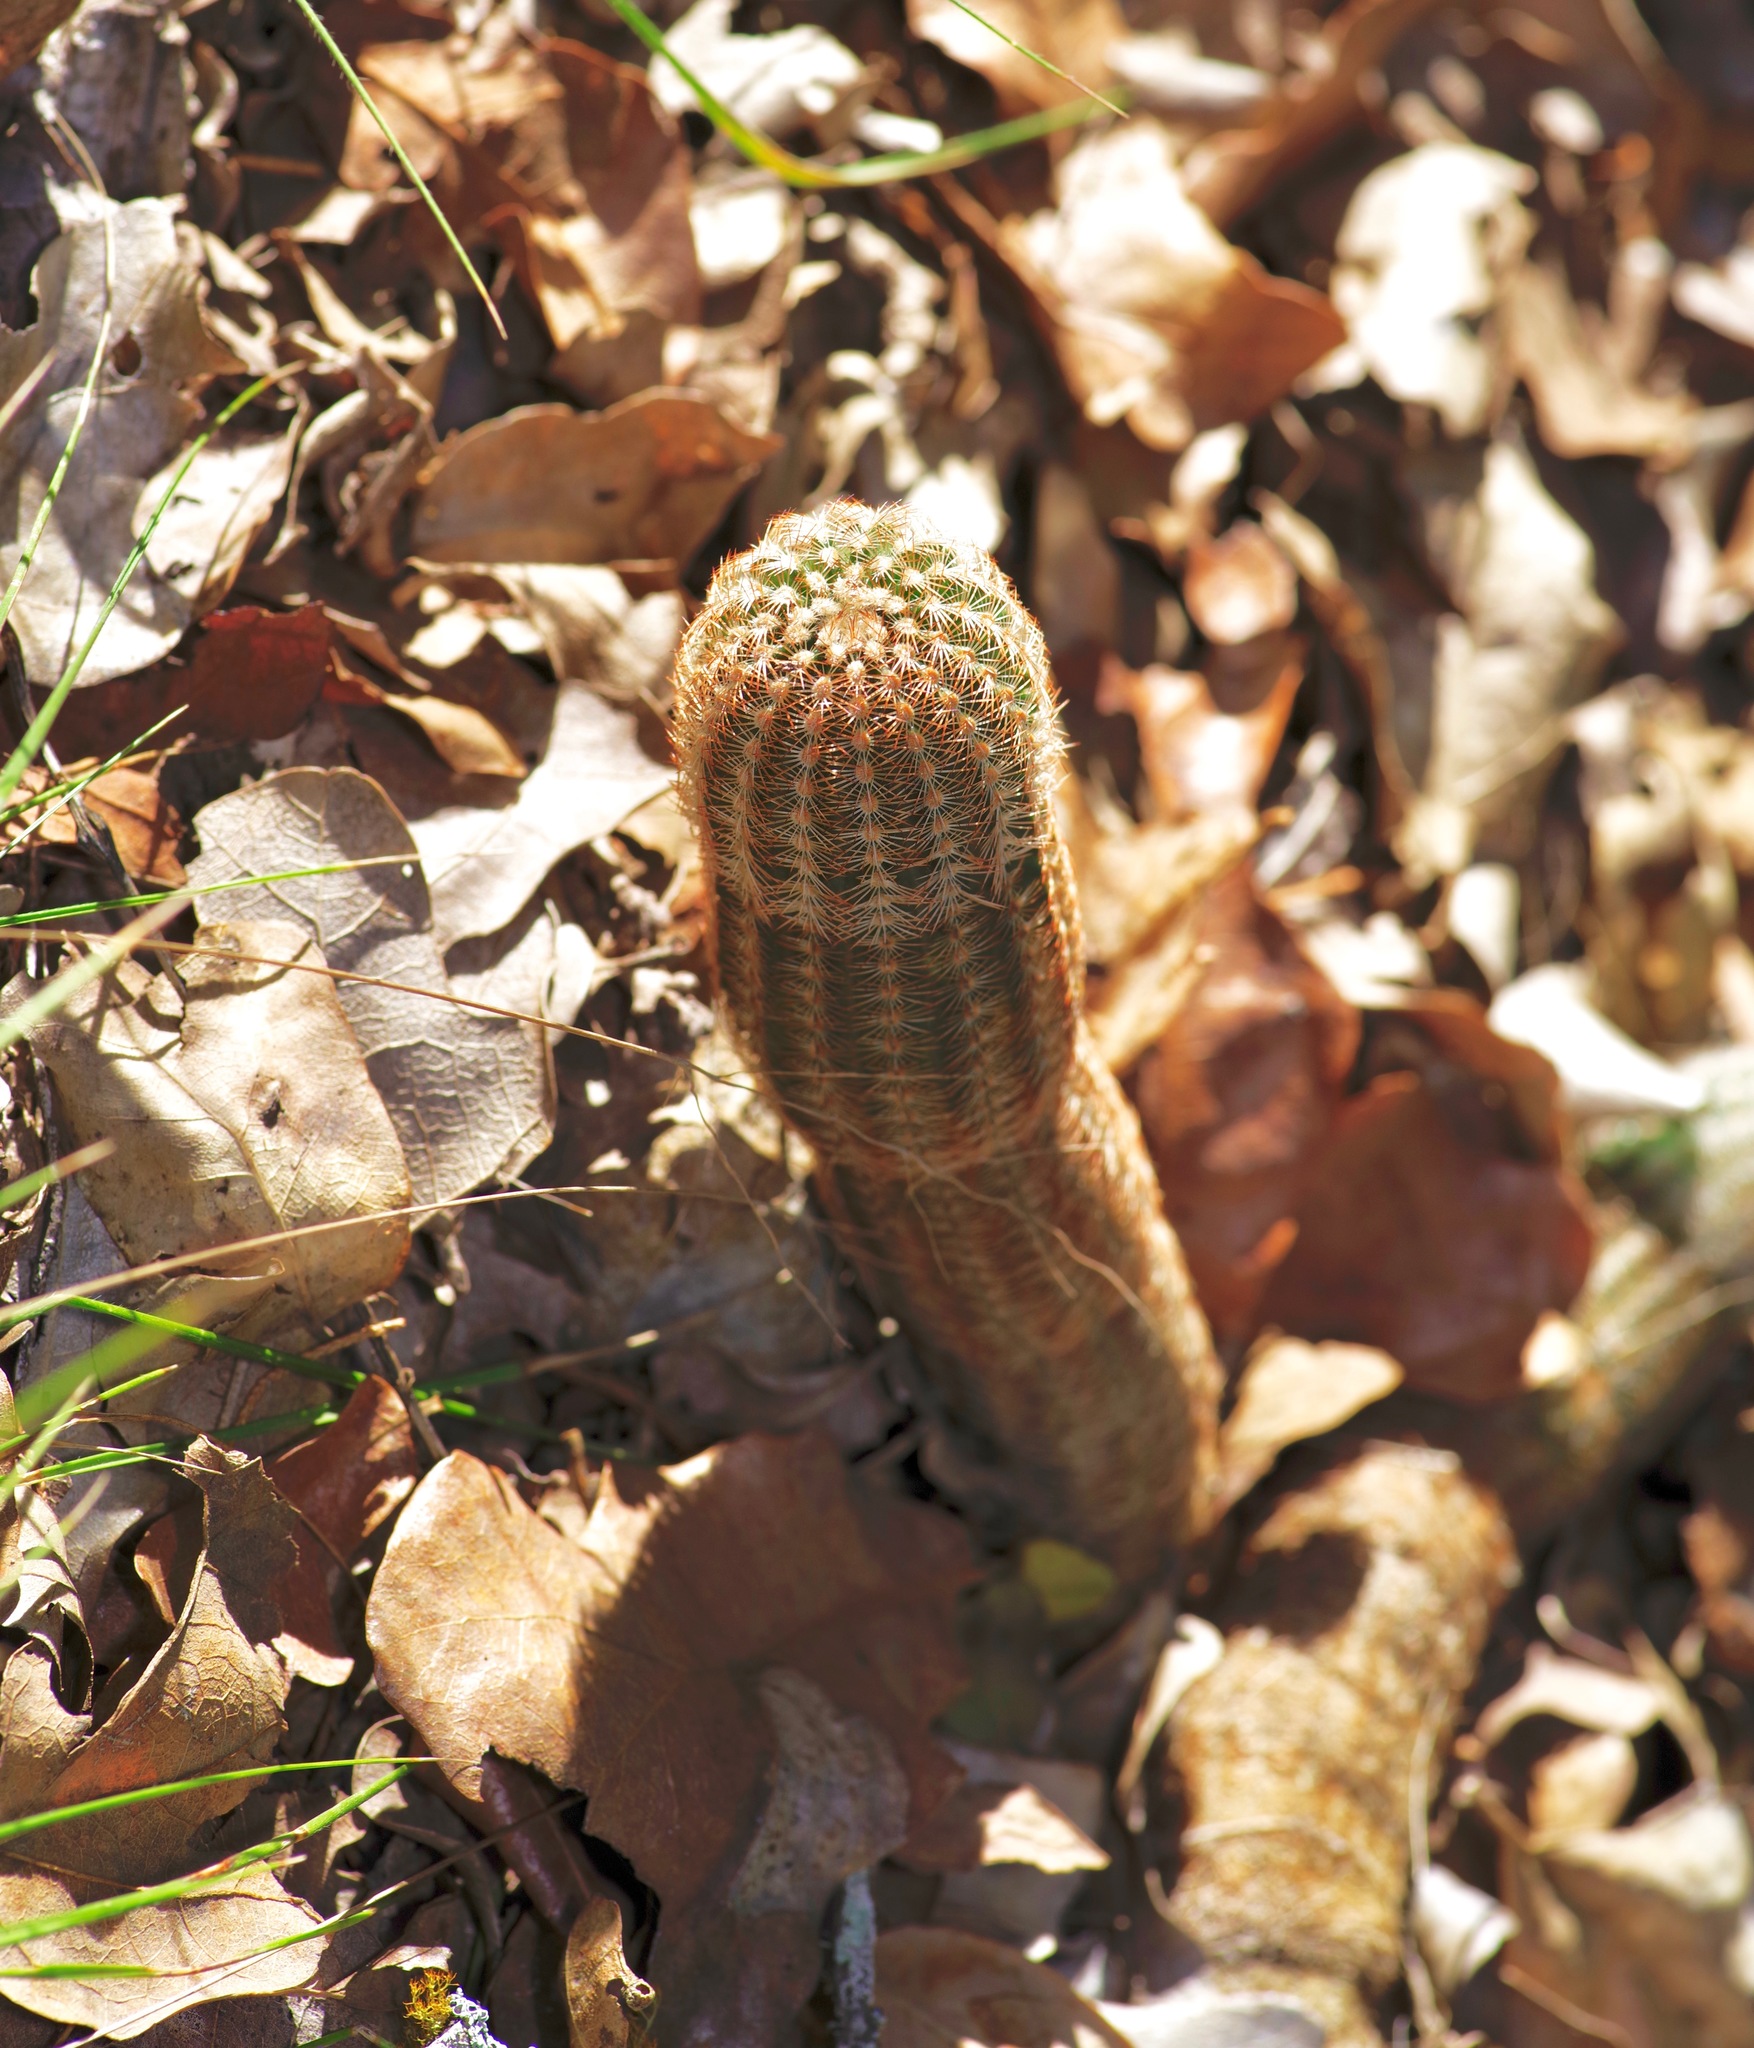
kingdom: Plantae
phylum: Tracheophyta
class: Magnoliopsida
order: Caryophyllales
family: Cactaceae
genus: Echinocereus
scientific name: Echinocereus reichenbachii
